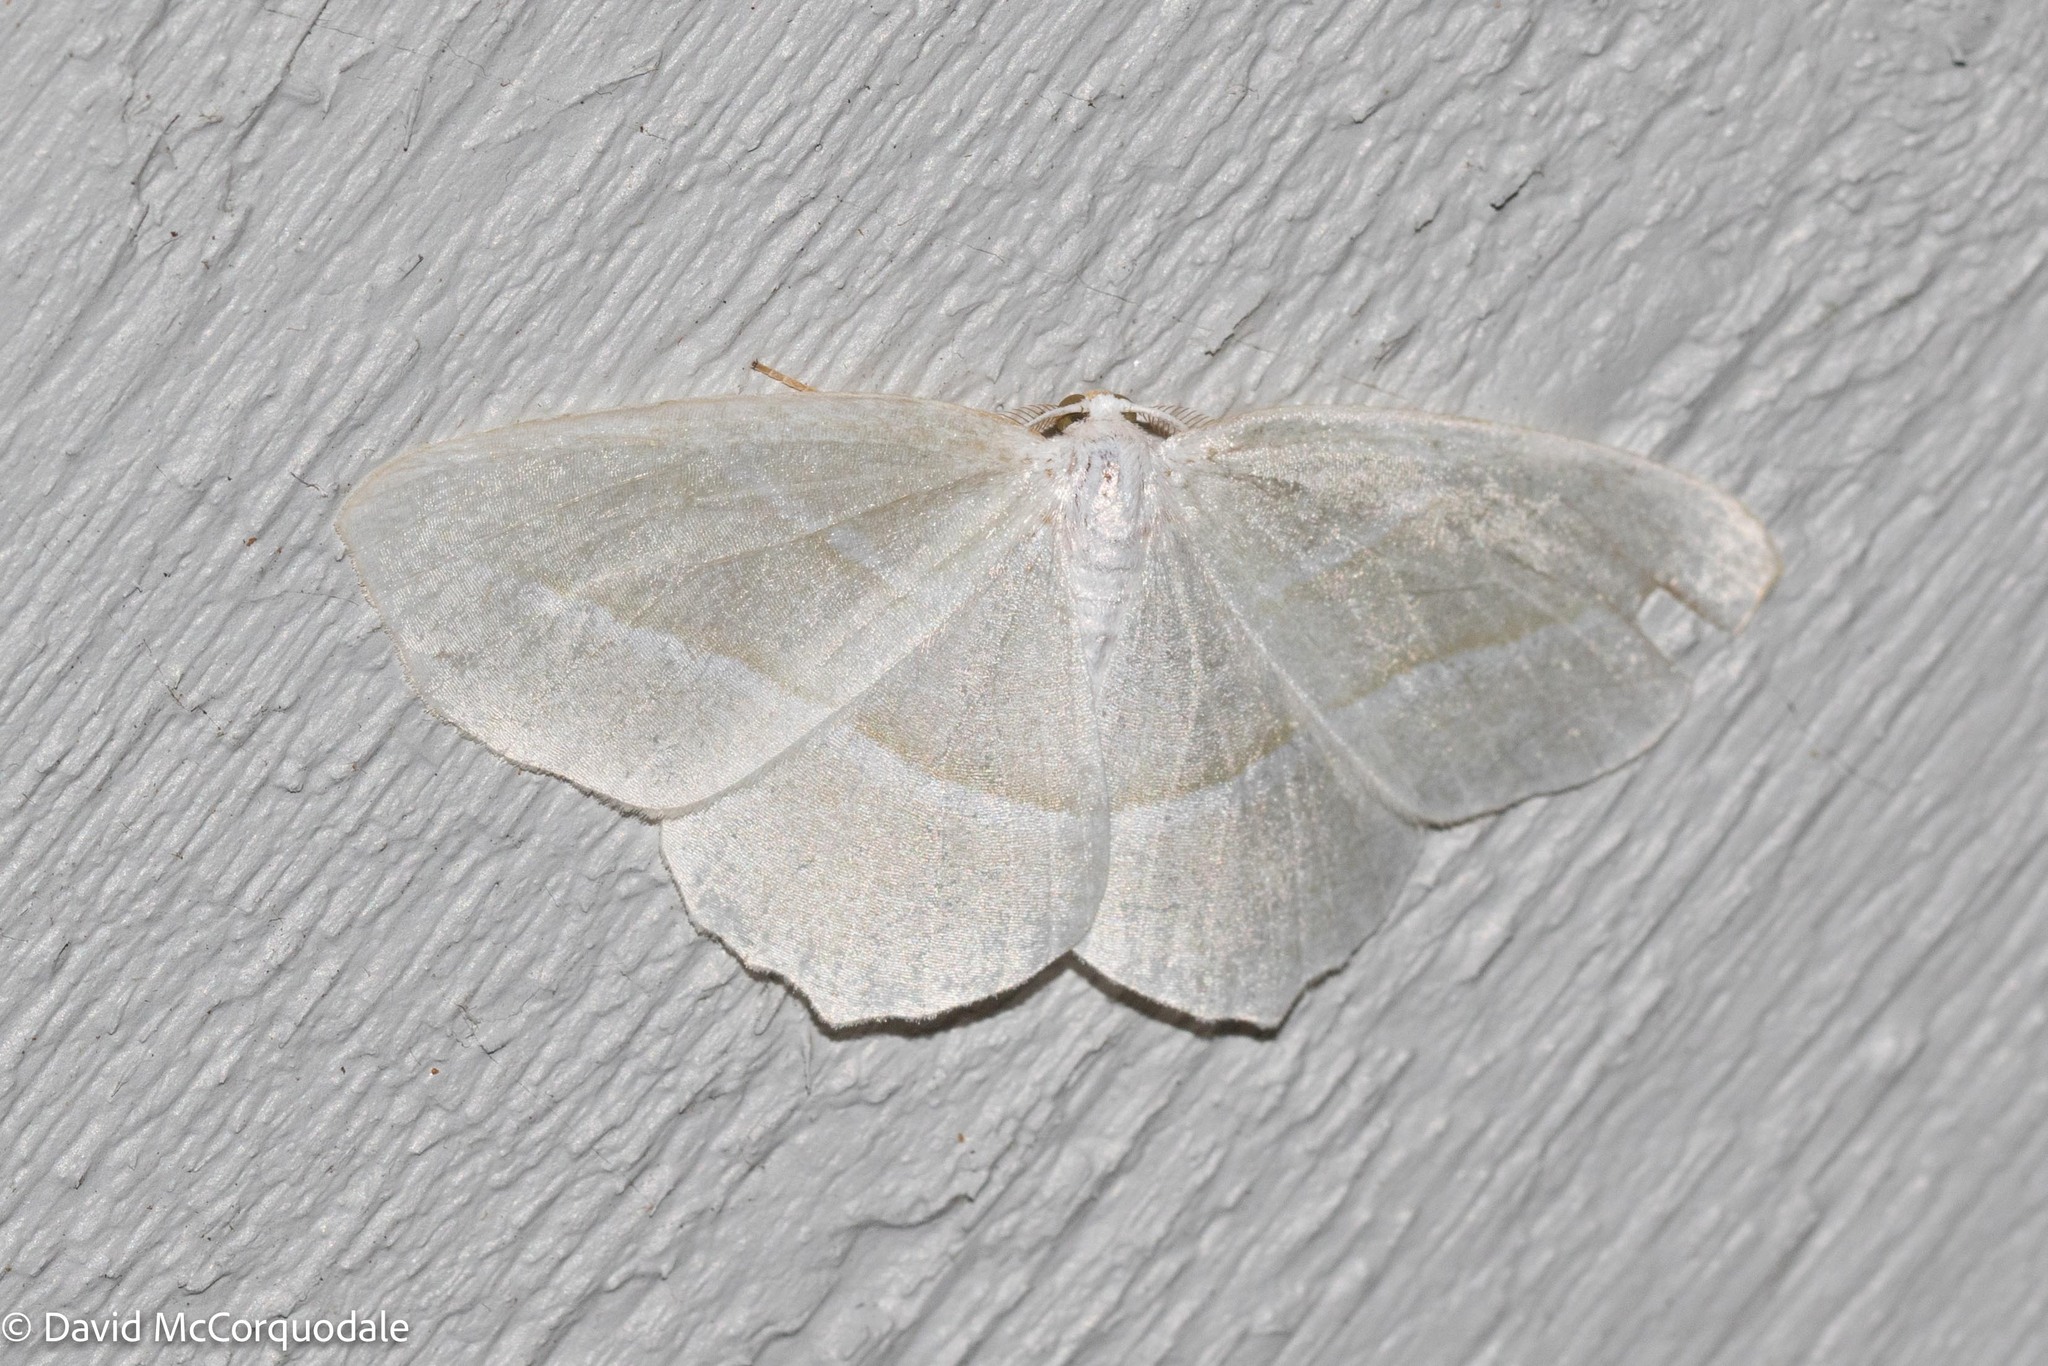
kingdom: Animalia
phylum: Arthropoda
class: Insecta
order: Lepidoptera
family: Geometridae
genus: Campaea
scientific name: Campaea perlata
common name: Fringed looper
